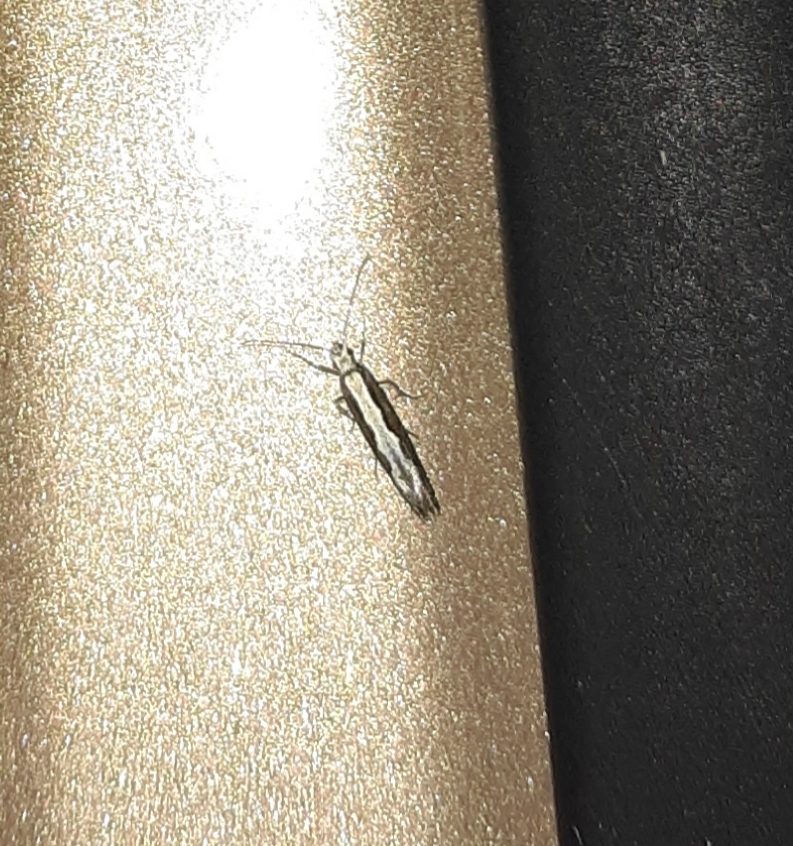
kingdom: Animalia
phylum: Arthropoda
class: Insecta
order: Lepidoptera
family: Plutellidae
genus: Plutella
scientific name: Plutella xylostella
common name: Diamond-back moth
